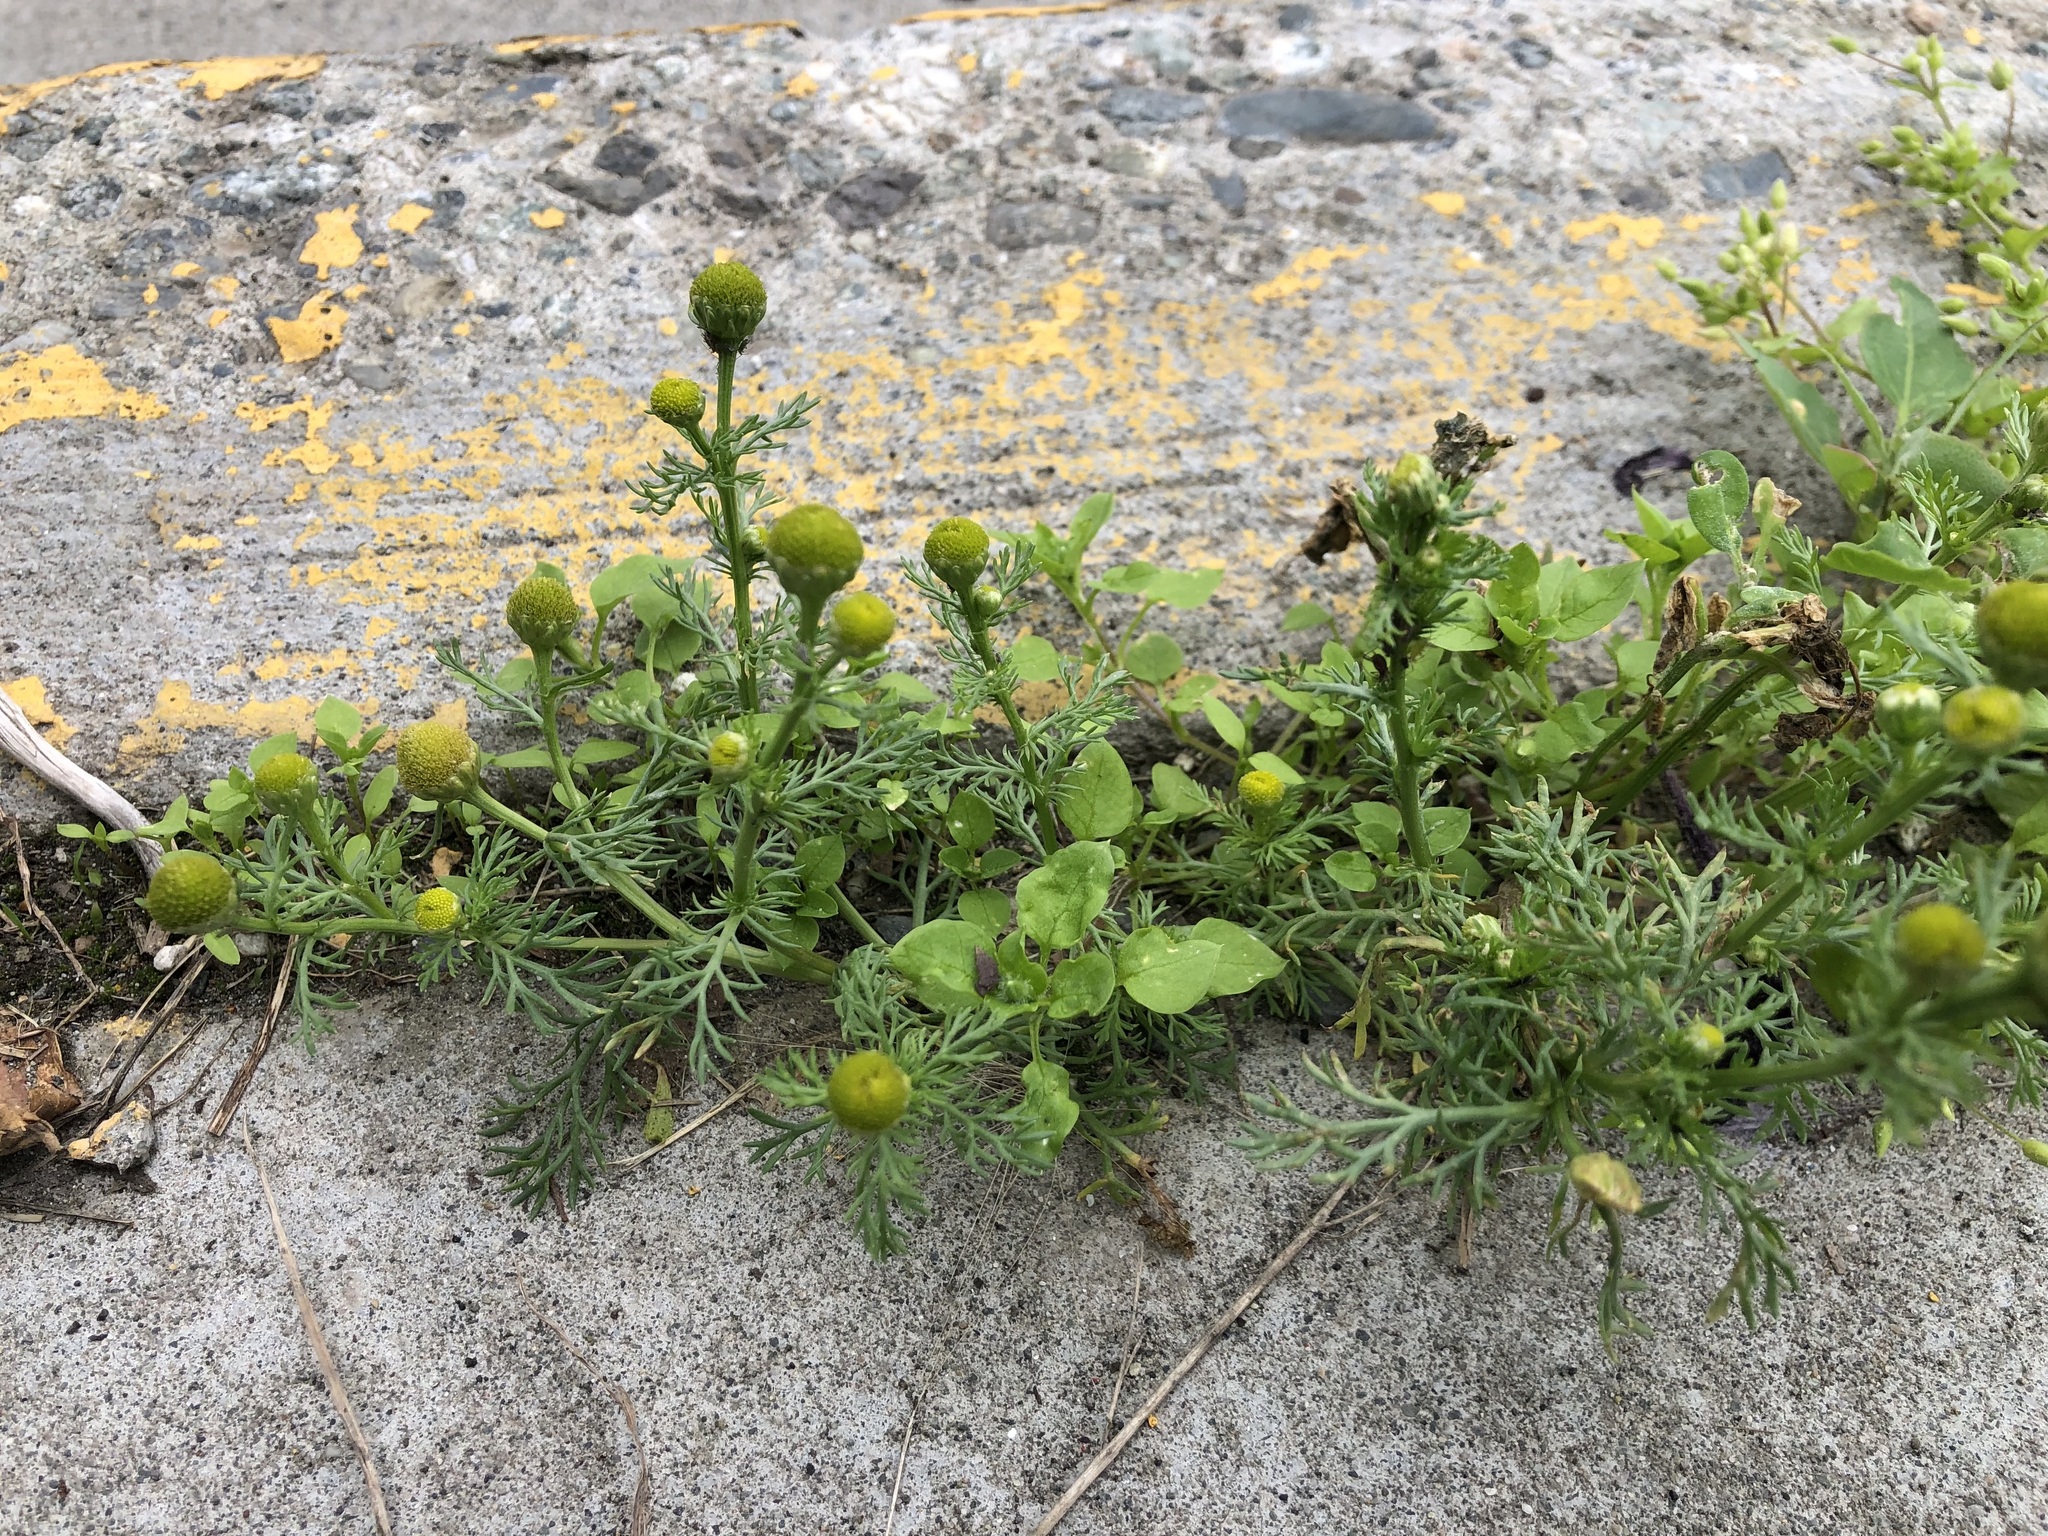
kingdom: Plantae
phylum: Tracheophyta
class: Magnoliopsida
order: Asterales
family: Asteraceae
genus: Matricaria
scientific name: Matricaria discoidea
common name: Disc mayweed
